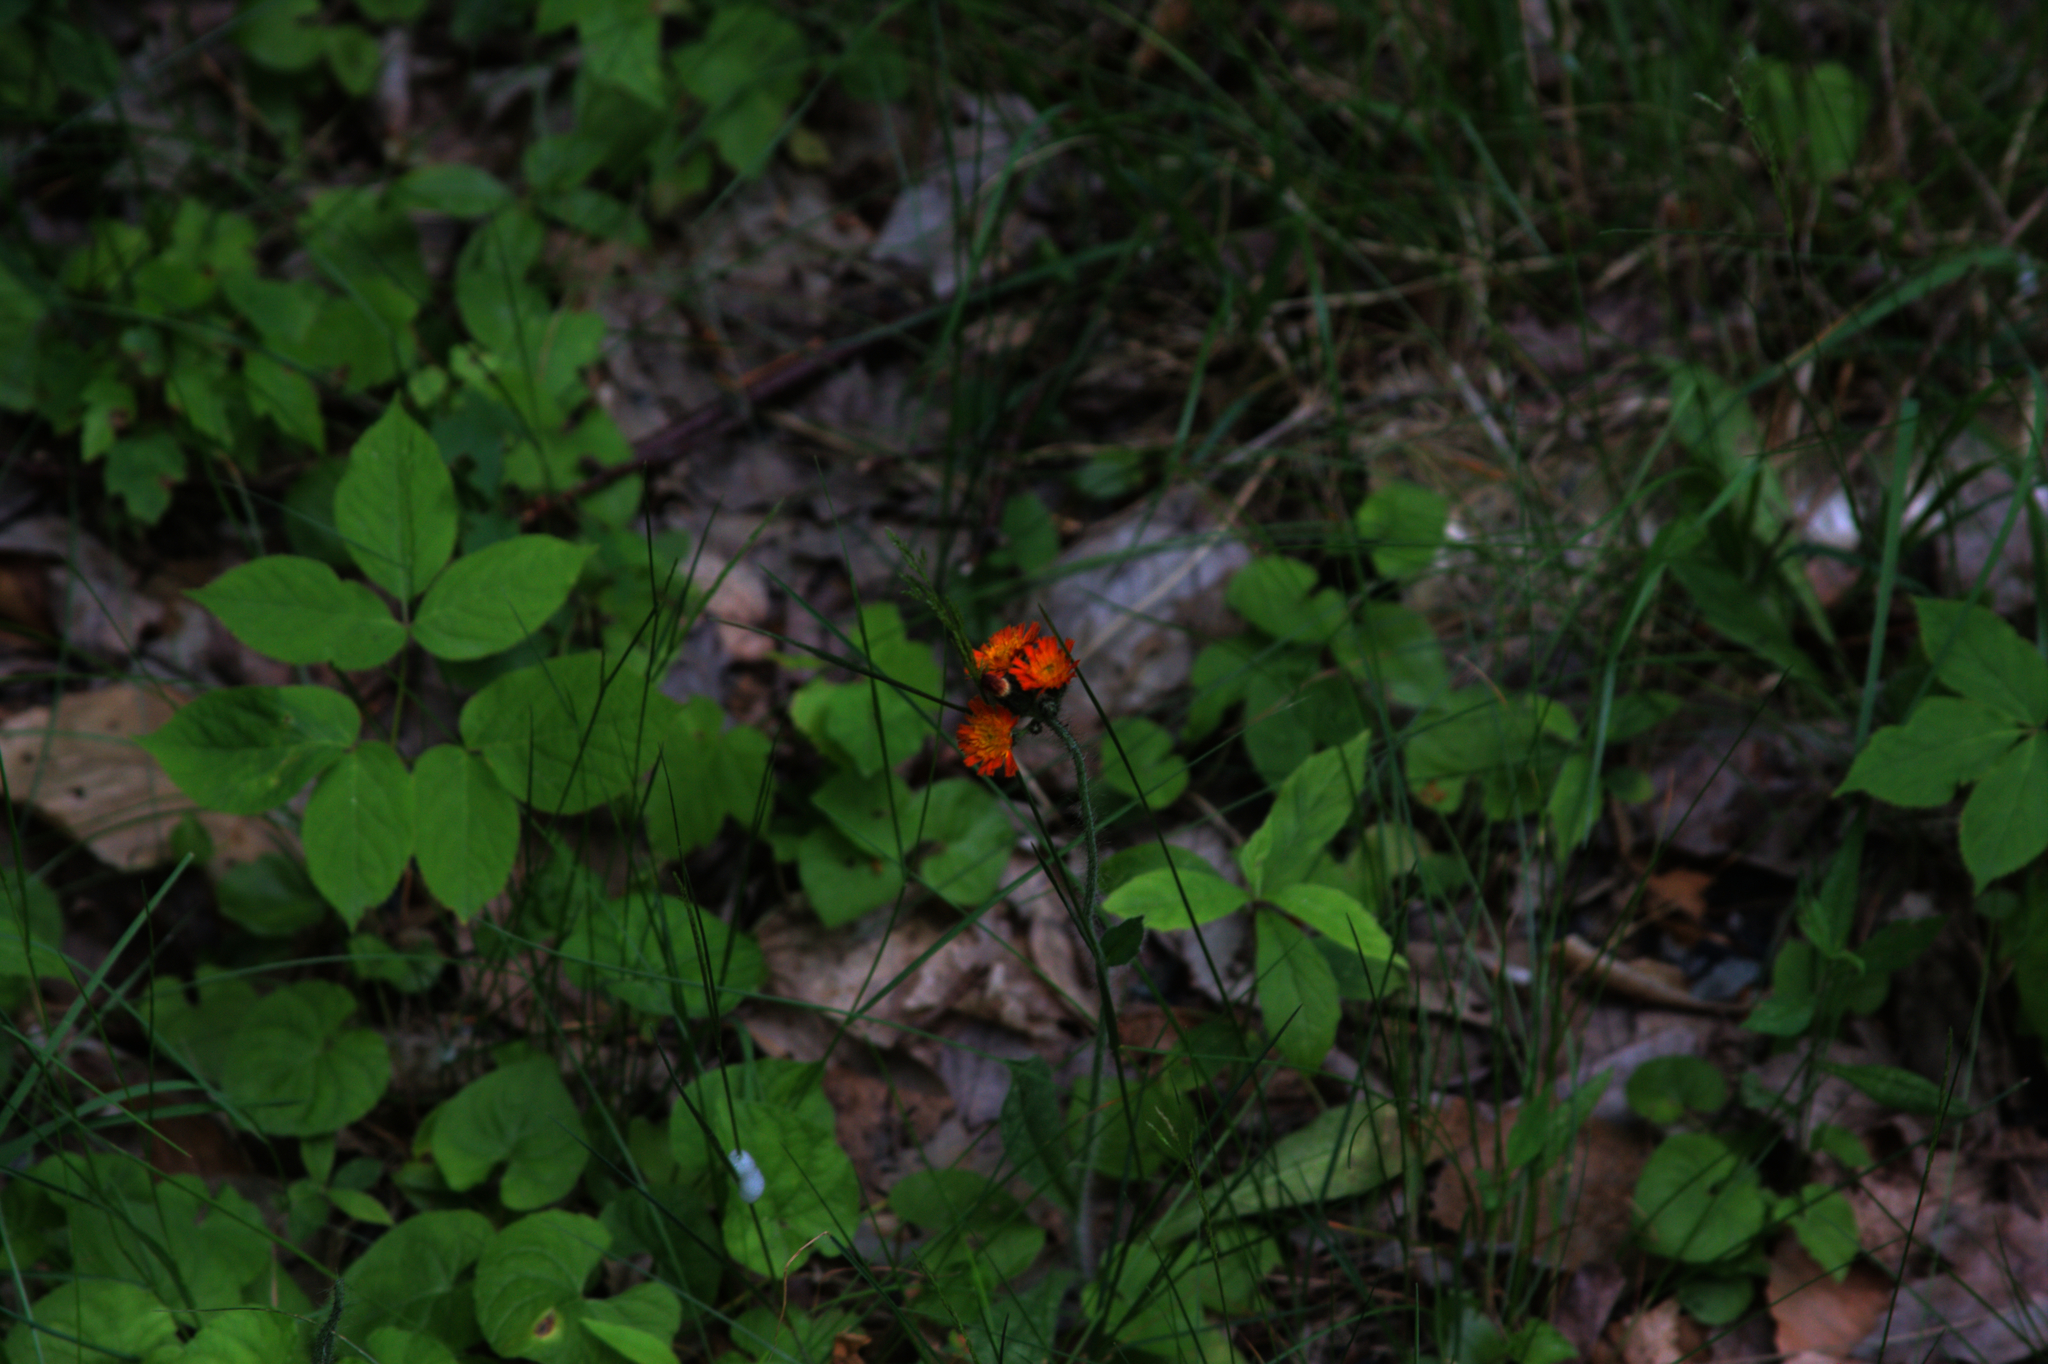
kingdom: Plantae
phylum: Tracheophyta
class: Magnoliopsida
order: Asterales
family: Asteraceae
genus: Pilosella
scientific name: Pilosella aurantiaca
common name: Fox-and-cubs
